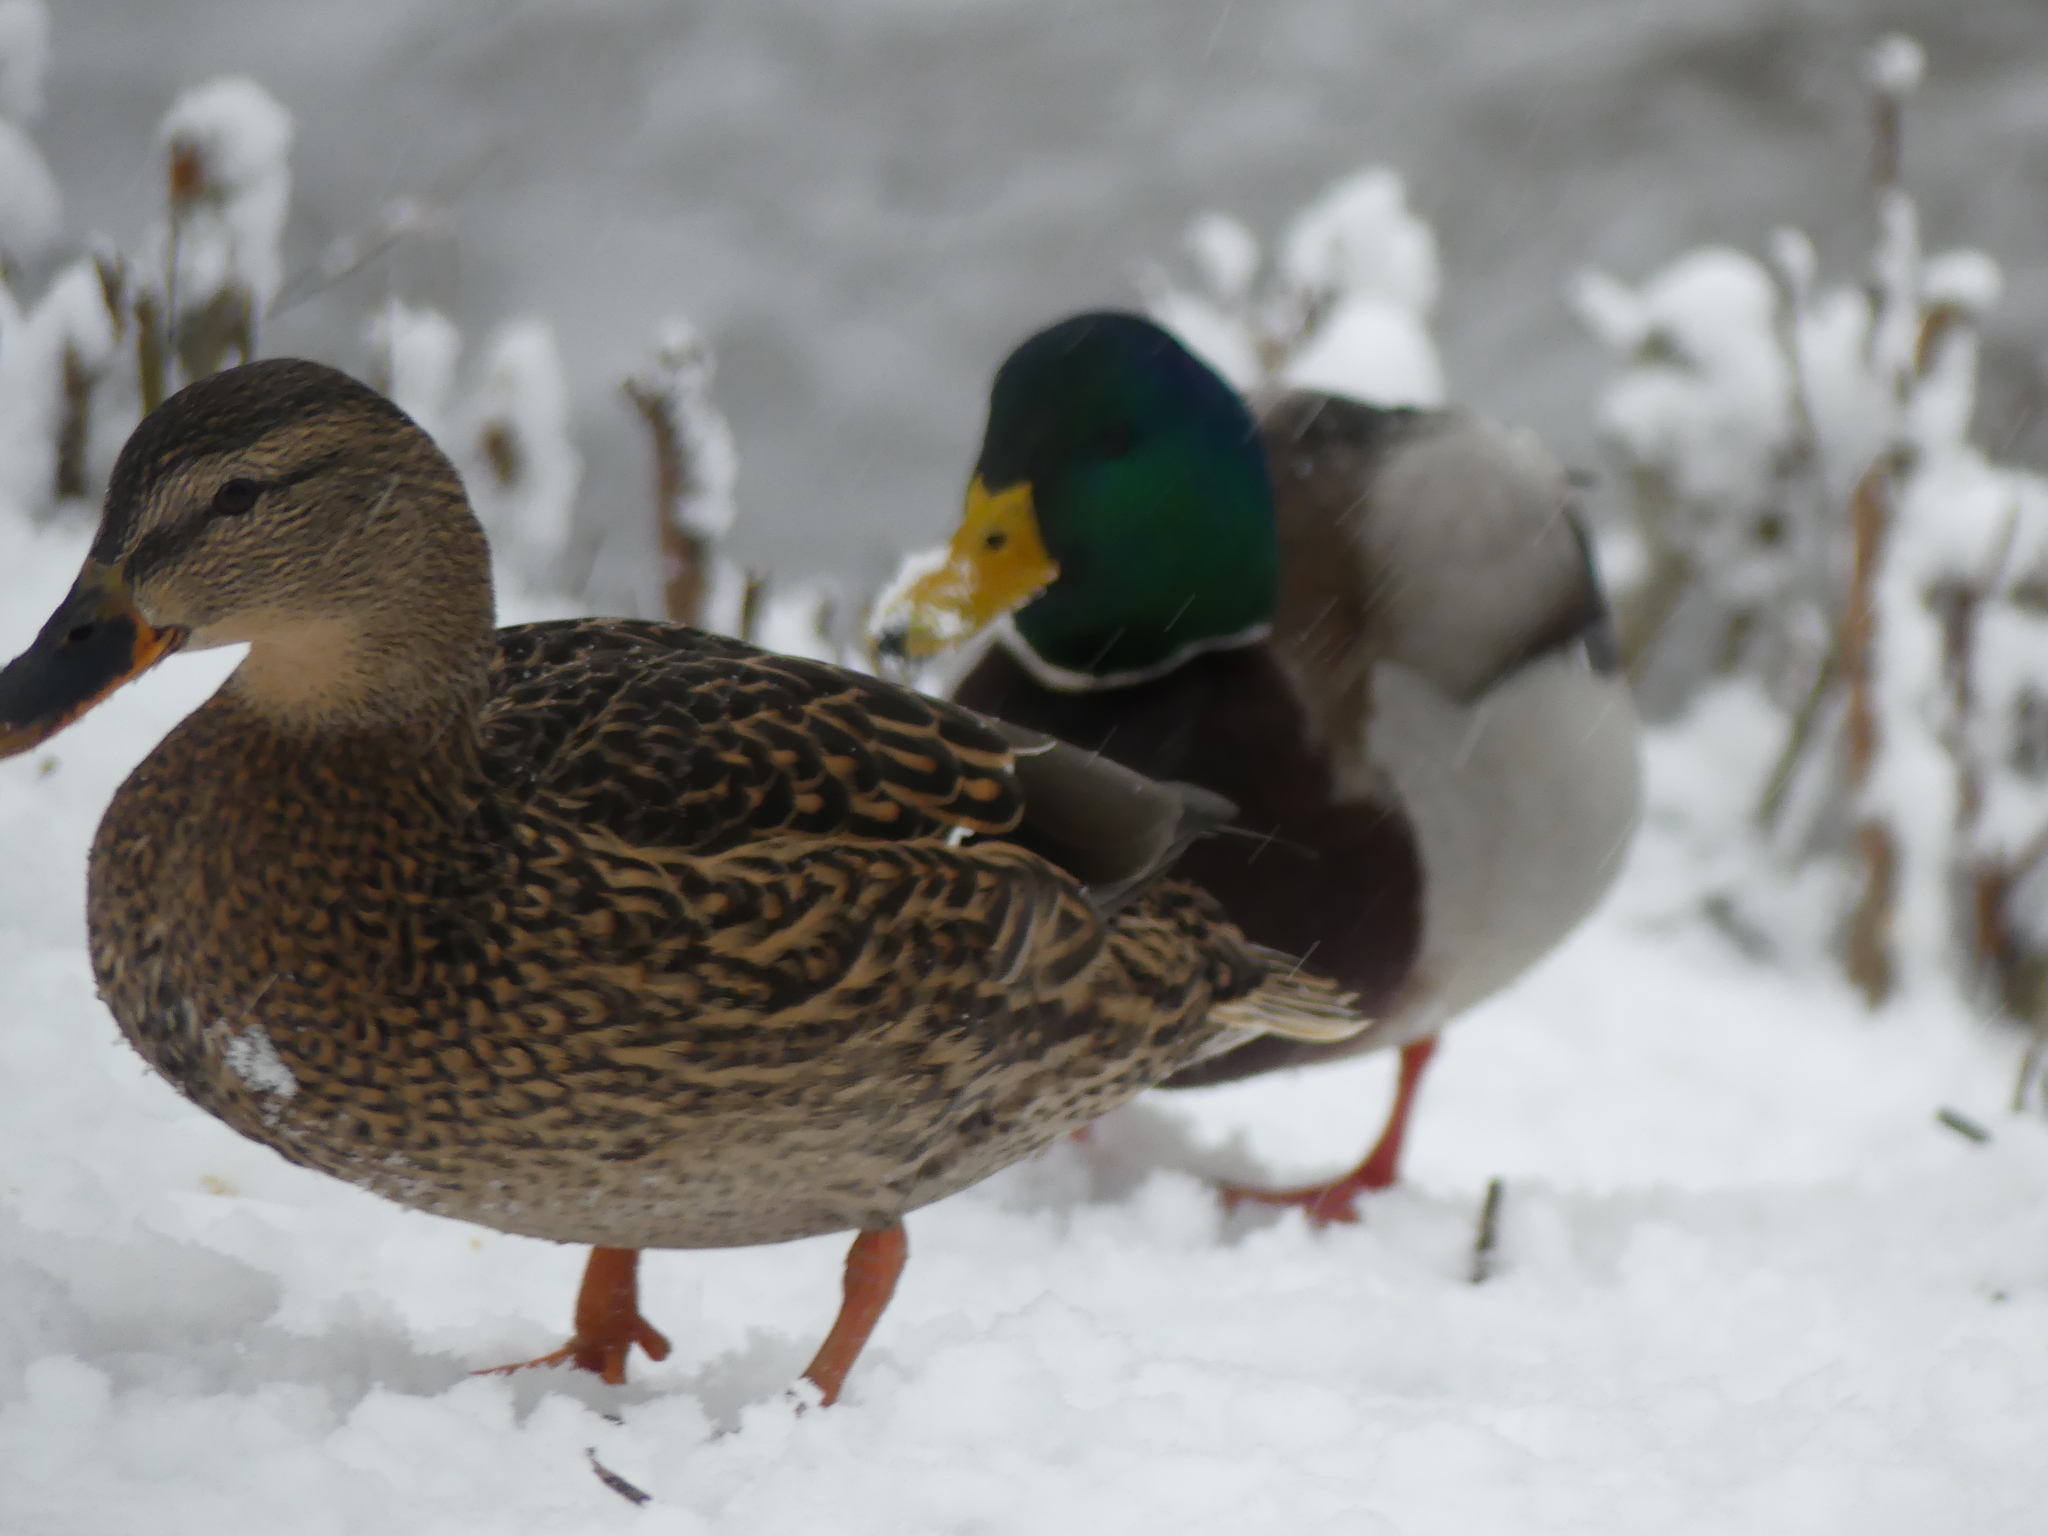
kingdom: Animalia
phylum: Chordata
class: Aves
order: Anseriformes
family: Anatidae
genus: Anas
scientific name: Anas platyrhynchos
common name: Mallard
